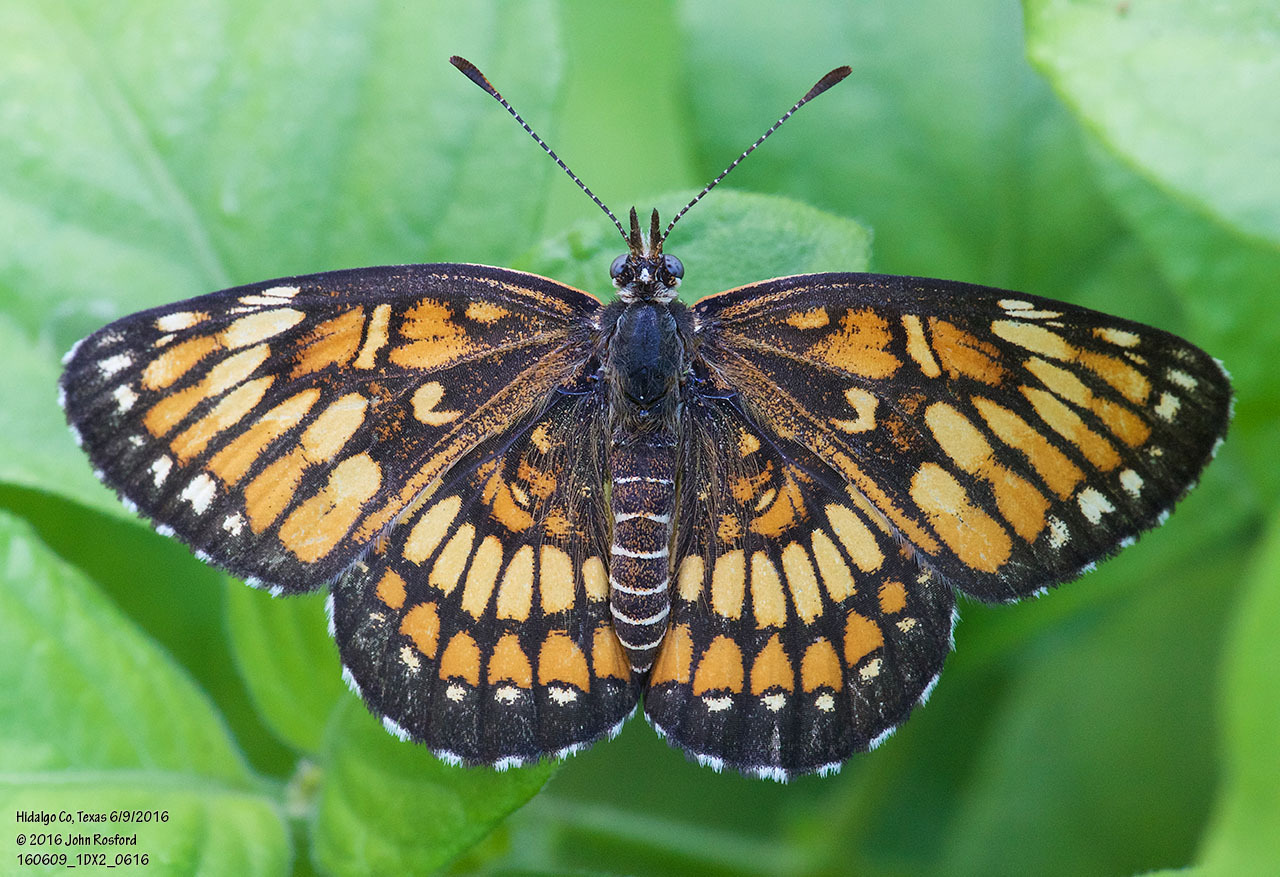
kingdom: Animalia
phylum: Arthropoda
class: Insecta
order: Lepidoptera
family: Nymphalidae
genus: Thessalia
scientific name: Thessalia theona
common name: Nymphalid moth
